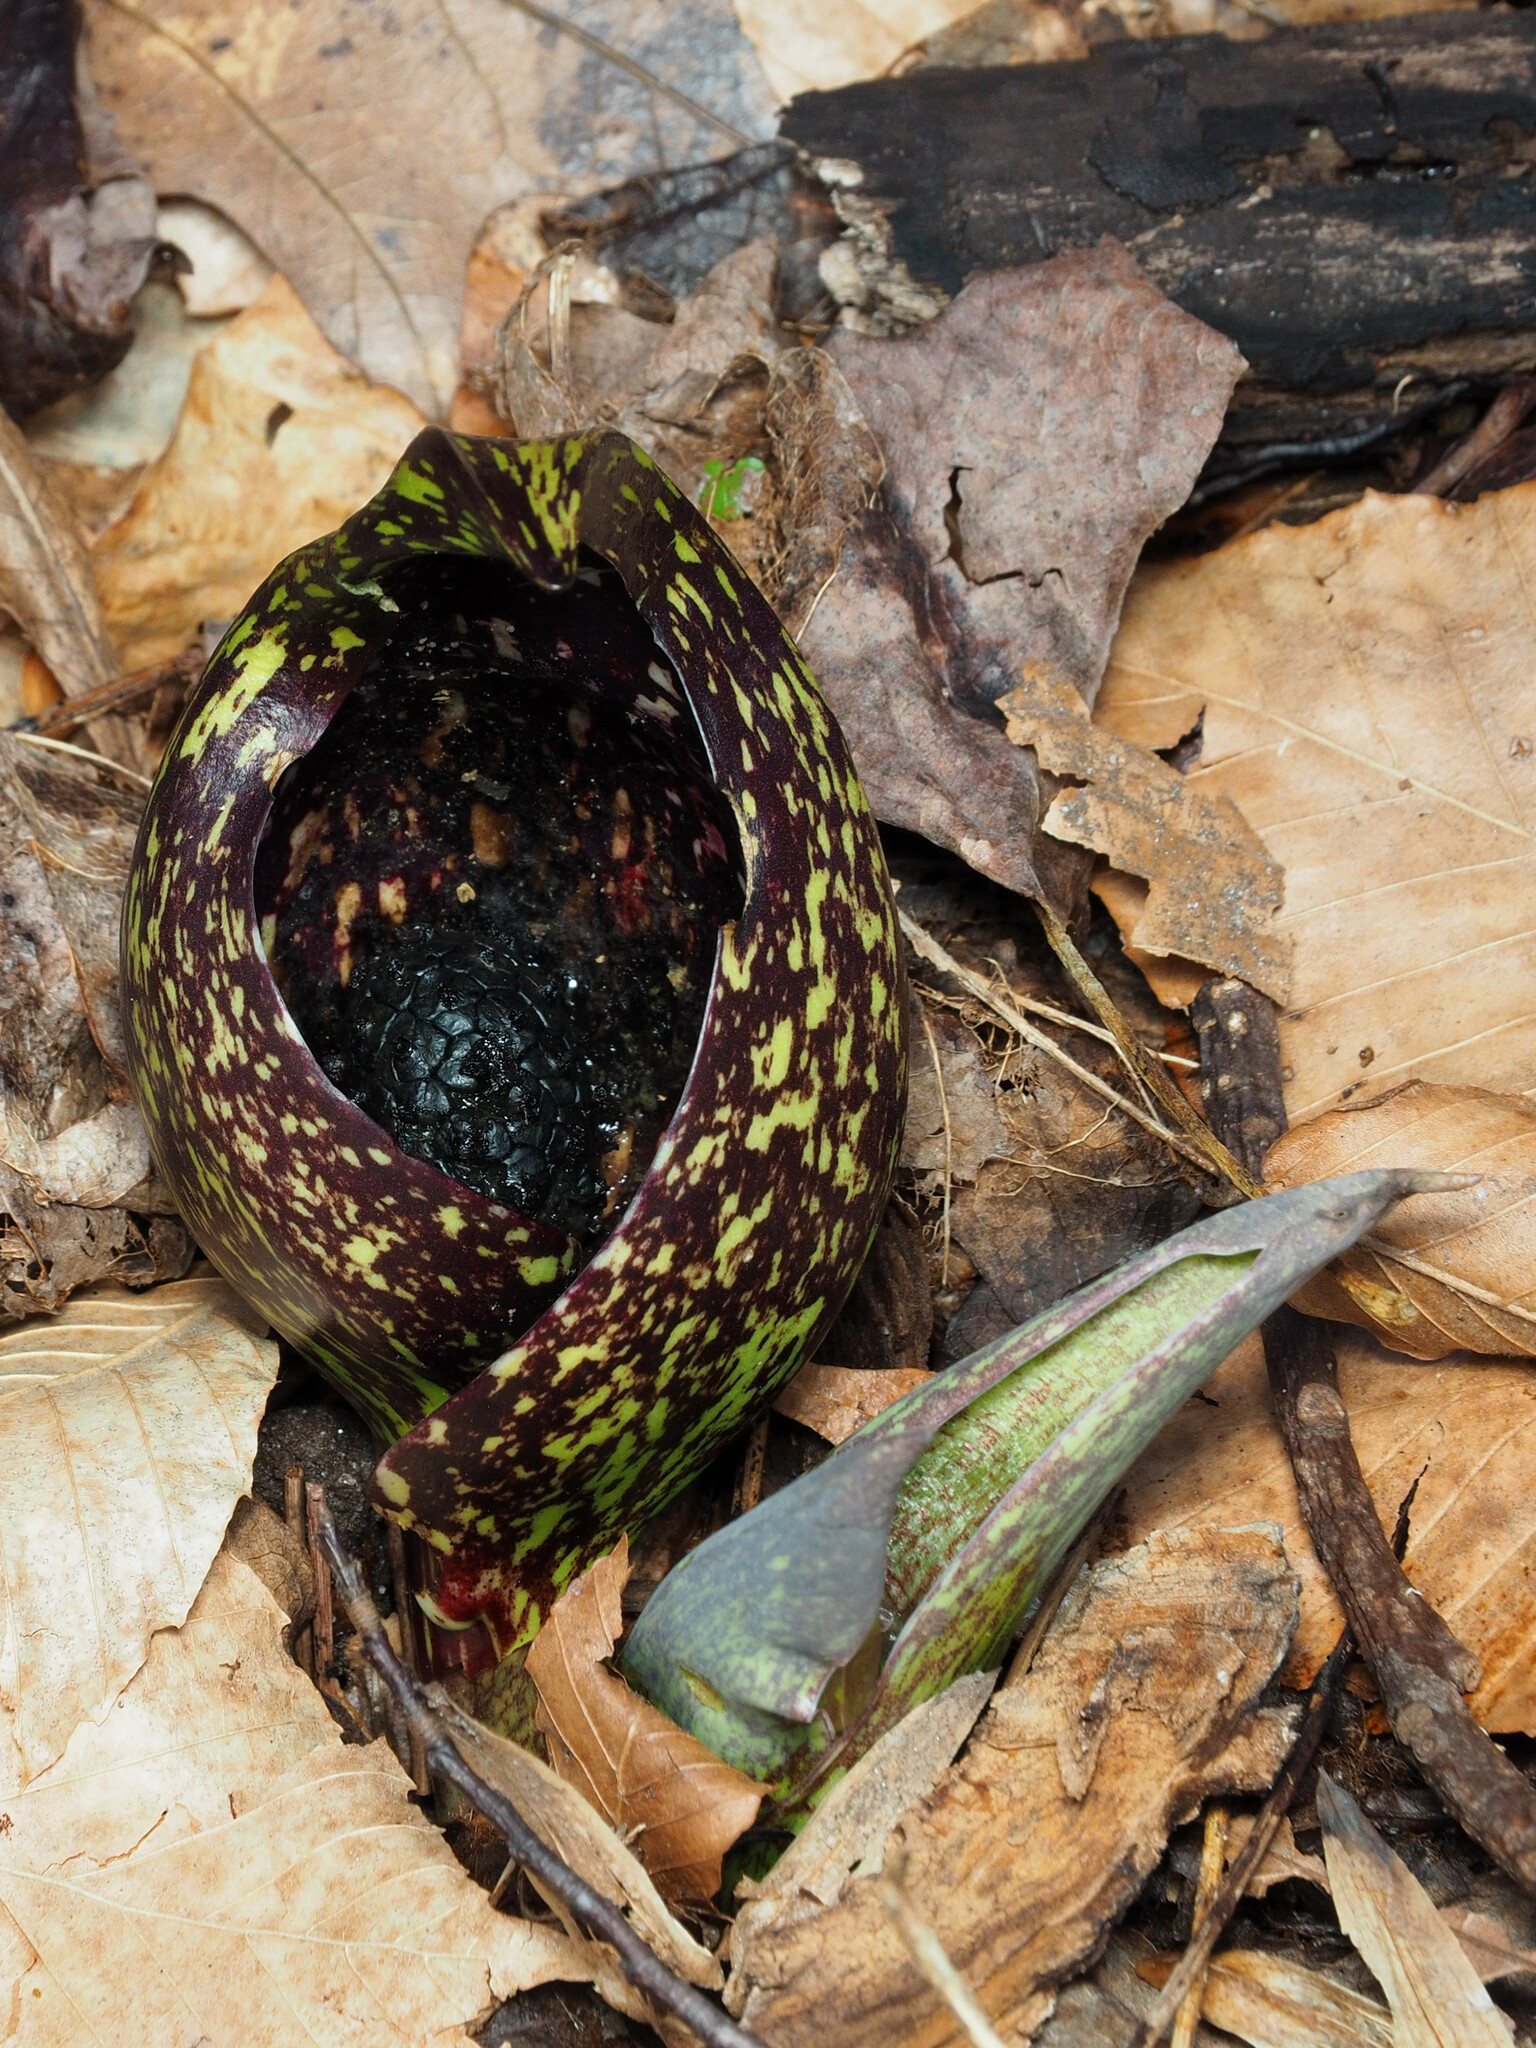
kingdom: Plantae
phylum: Tracheophyta
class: Liliopsida
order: Alismatales
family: Araceae
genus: Symplocarpus
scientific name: Symplocarpus foetidus
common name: Eastern skunk cabbage
